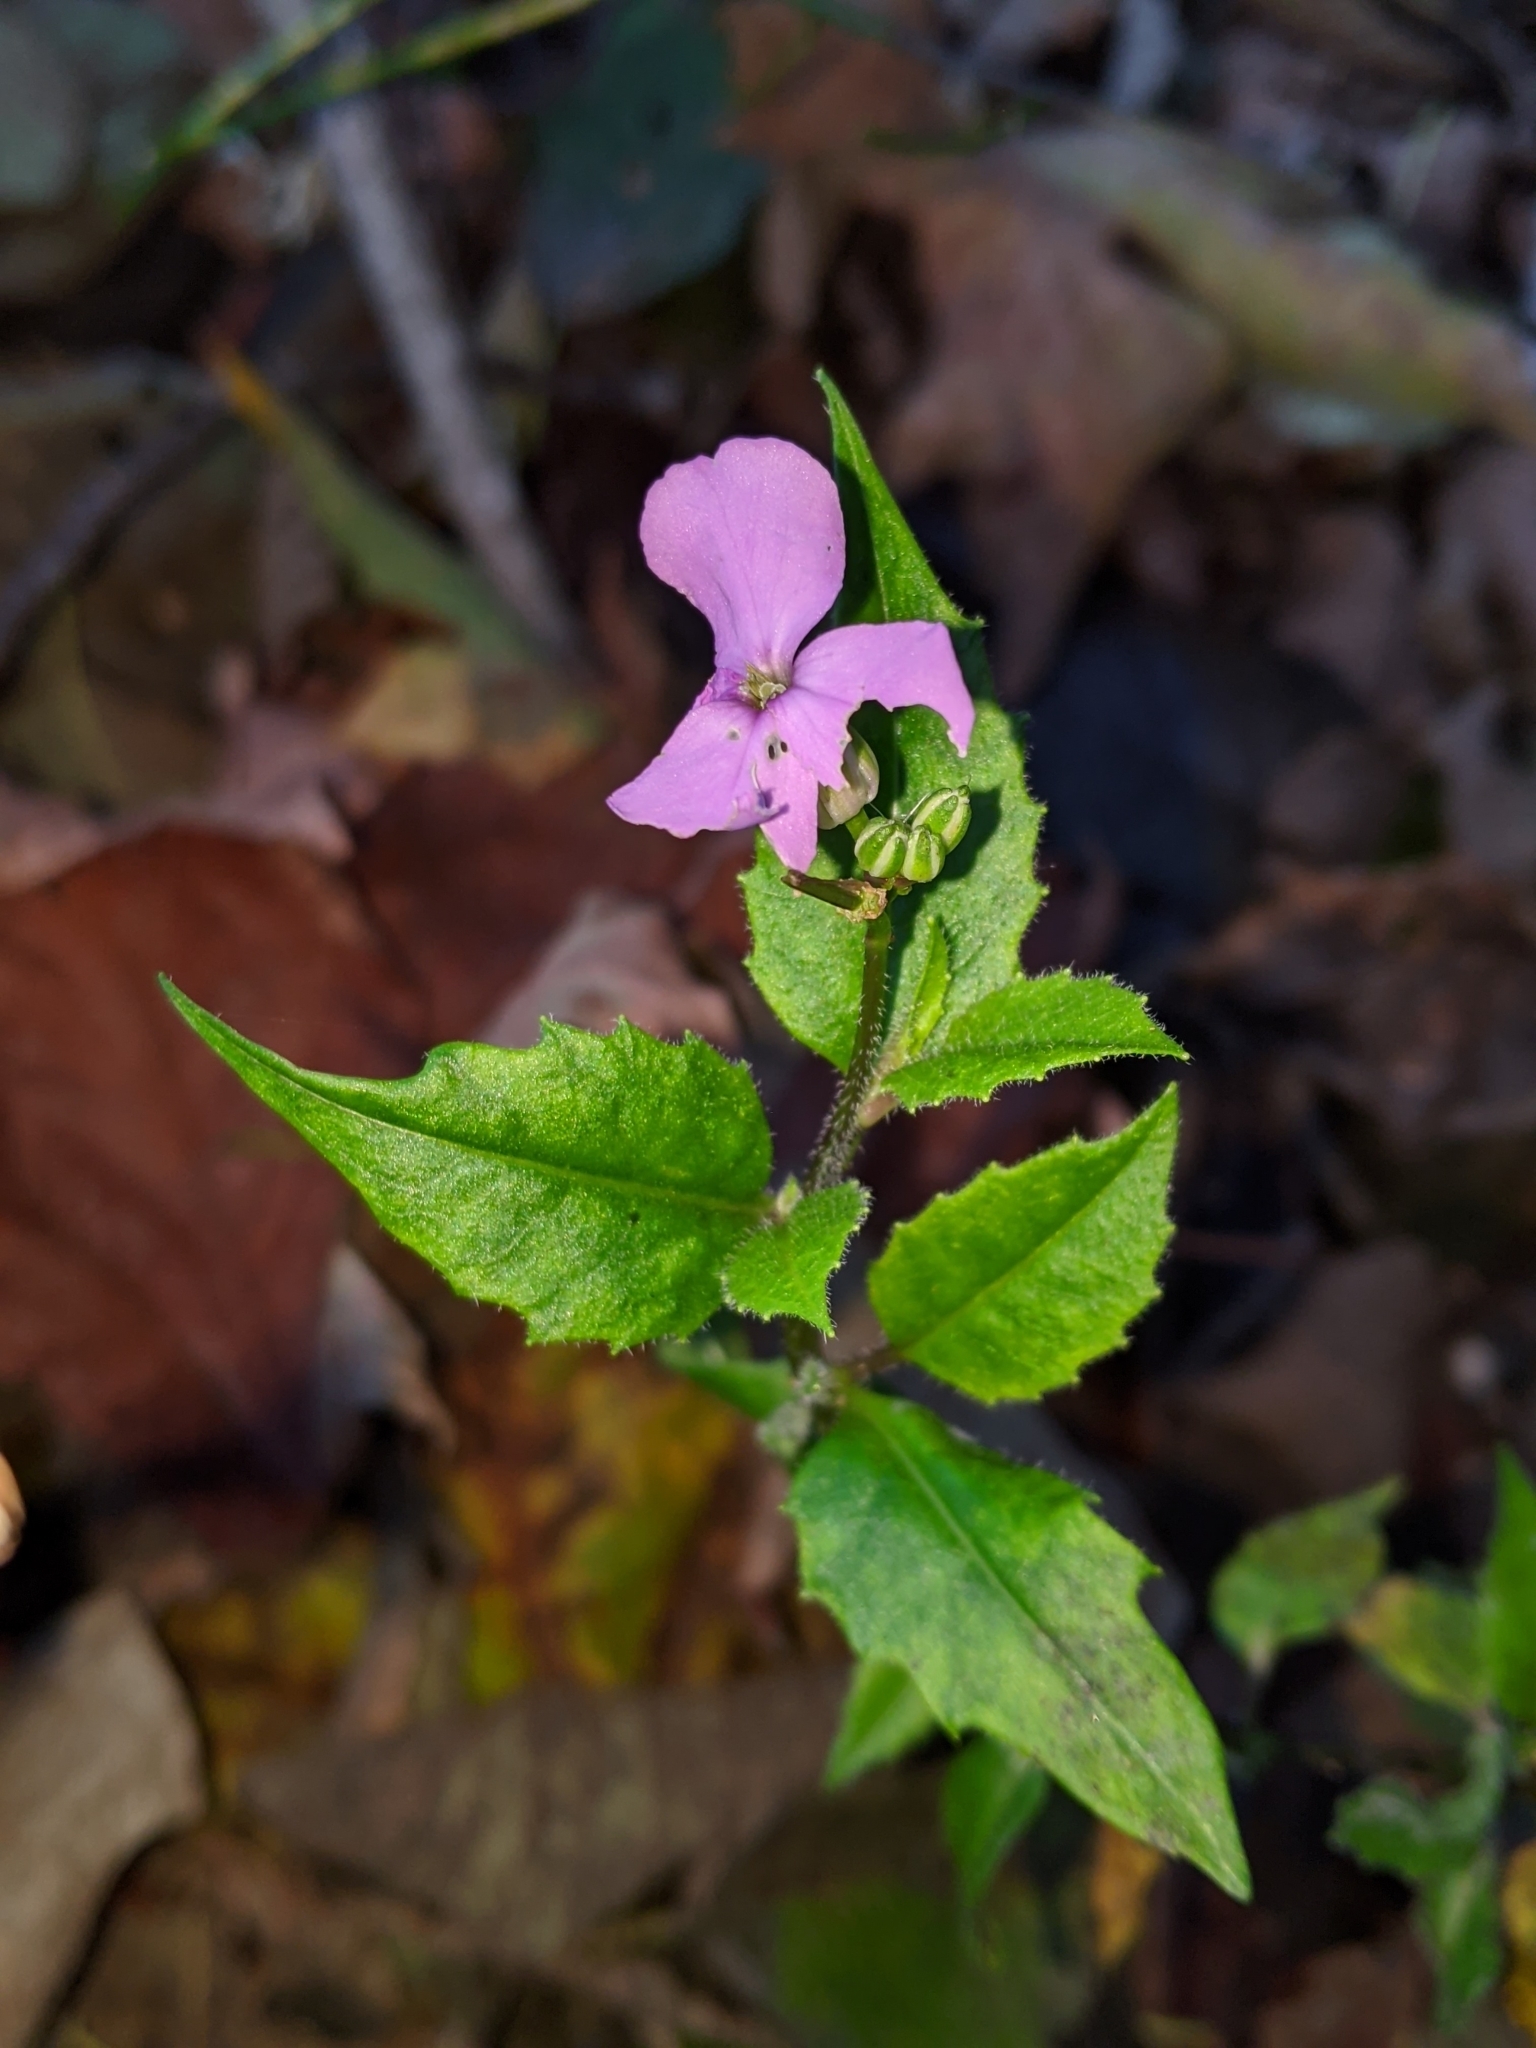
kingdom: Plantae
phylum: Tracheophyta
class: Magnoliopsida
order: Brassicales
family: Brassicaceae
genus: Hesperis
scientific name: Hesperis matronalis
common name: Dame's-violet
